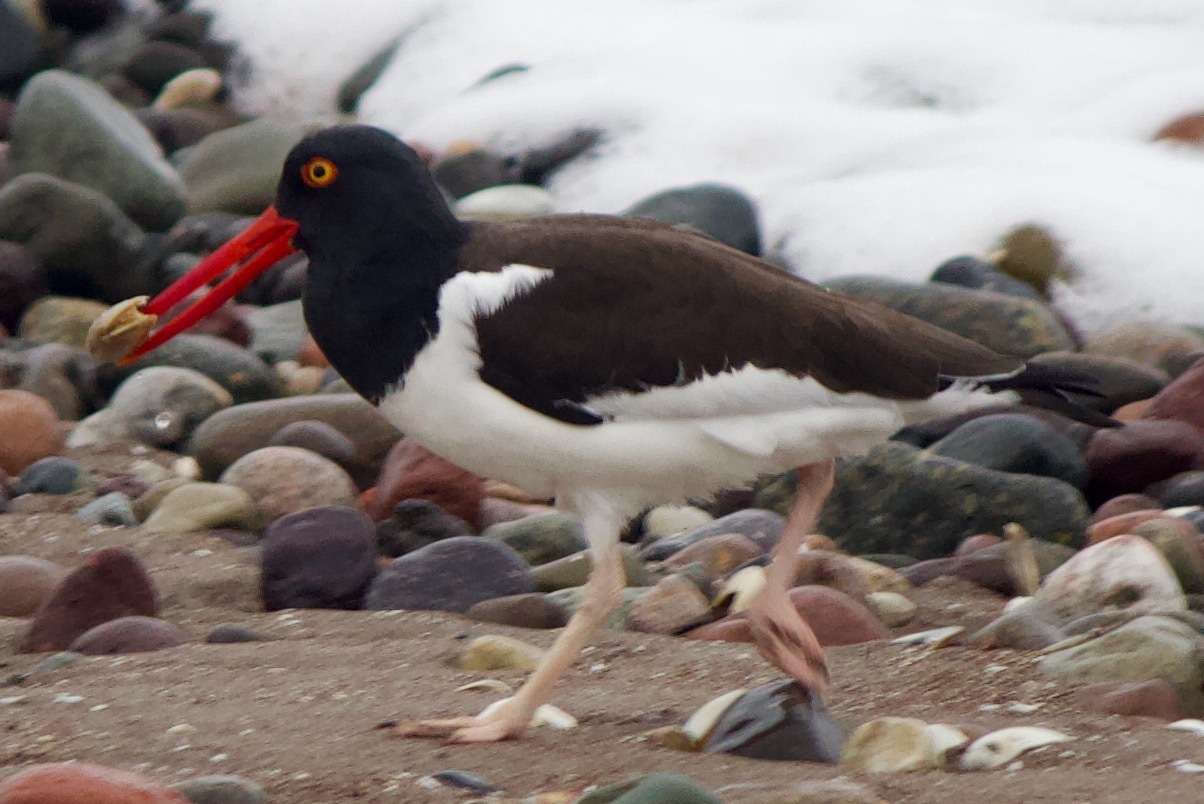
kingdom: Animalia
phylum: Chordata
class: Aves
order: Charadriiformes
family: Haematopodidae
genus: Haematopus
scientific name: Haematopus palliatus
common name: American oystercatcher
